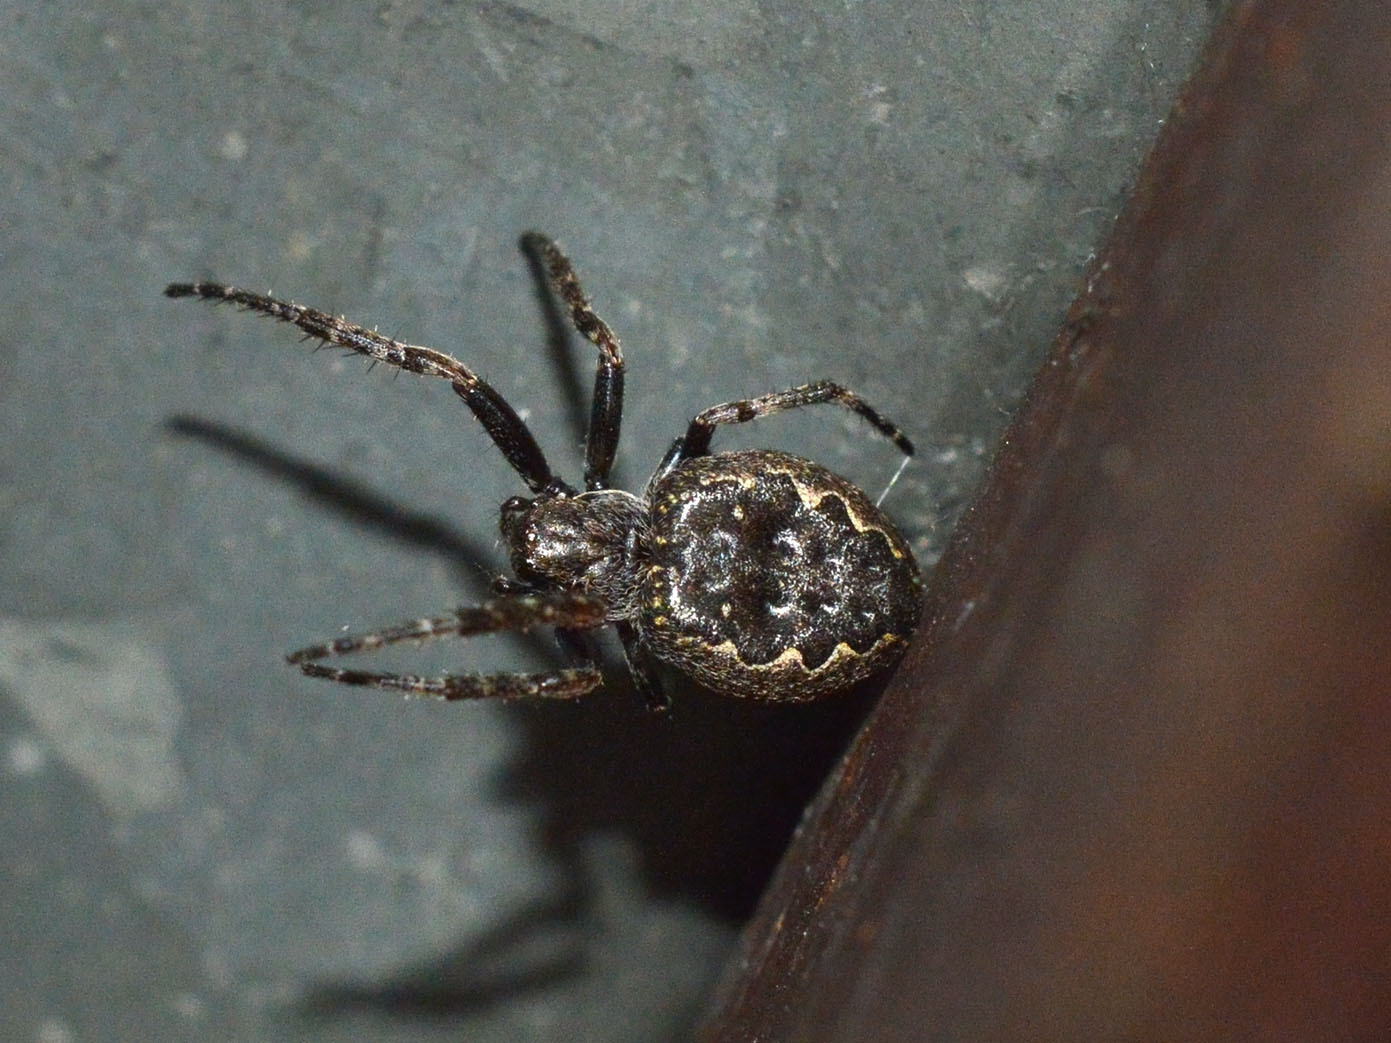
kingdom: Animalia
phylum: Arthropoda
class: Arachnida
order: Araneae
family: Araneidae
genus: Nuctenea
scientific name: Nuctenea umbratica
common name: Toad spider
